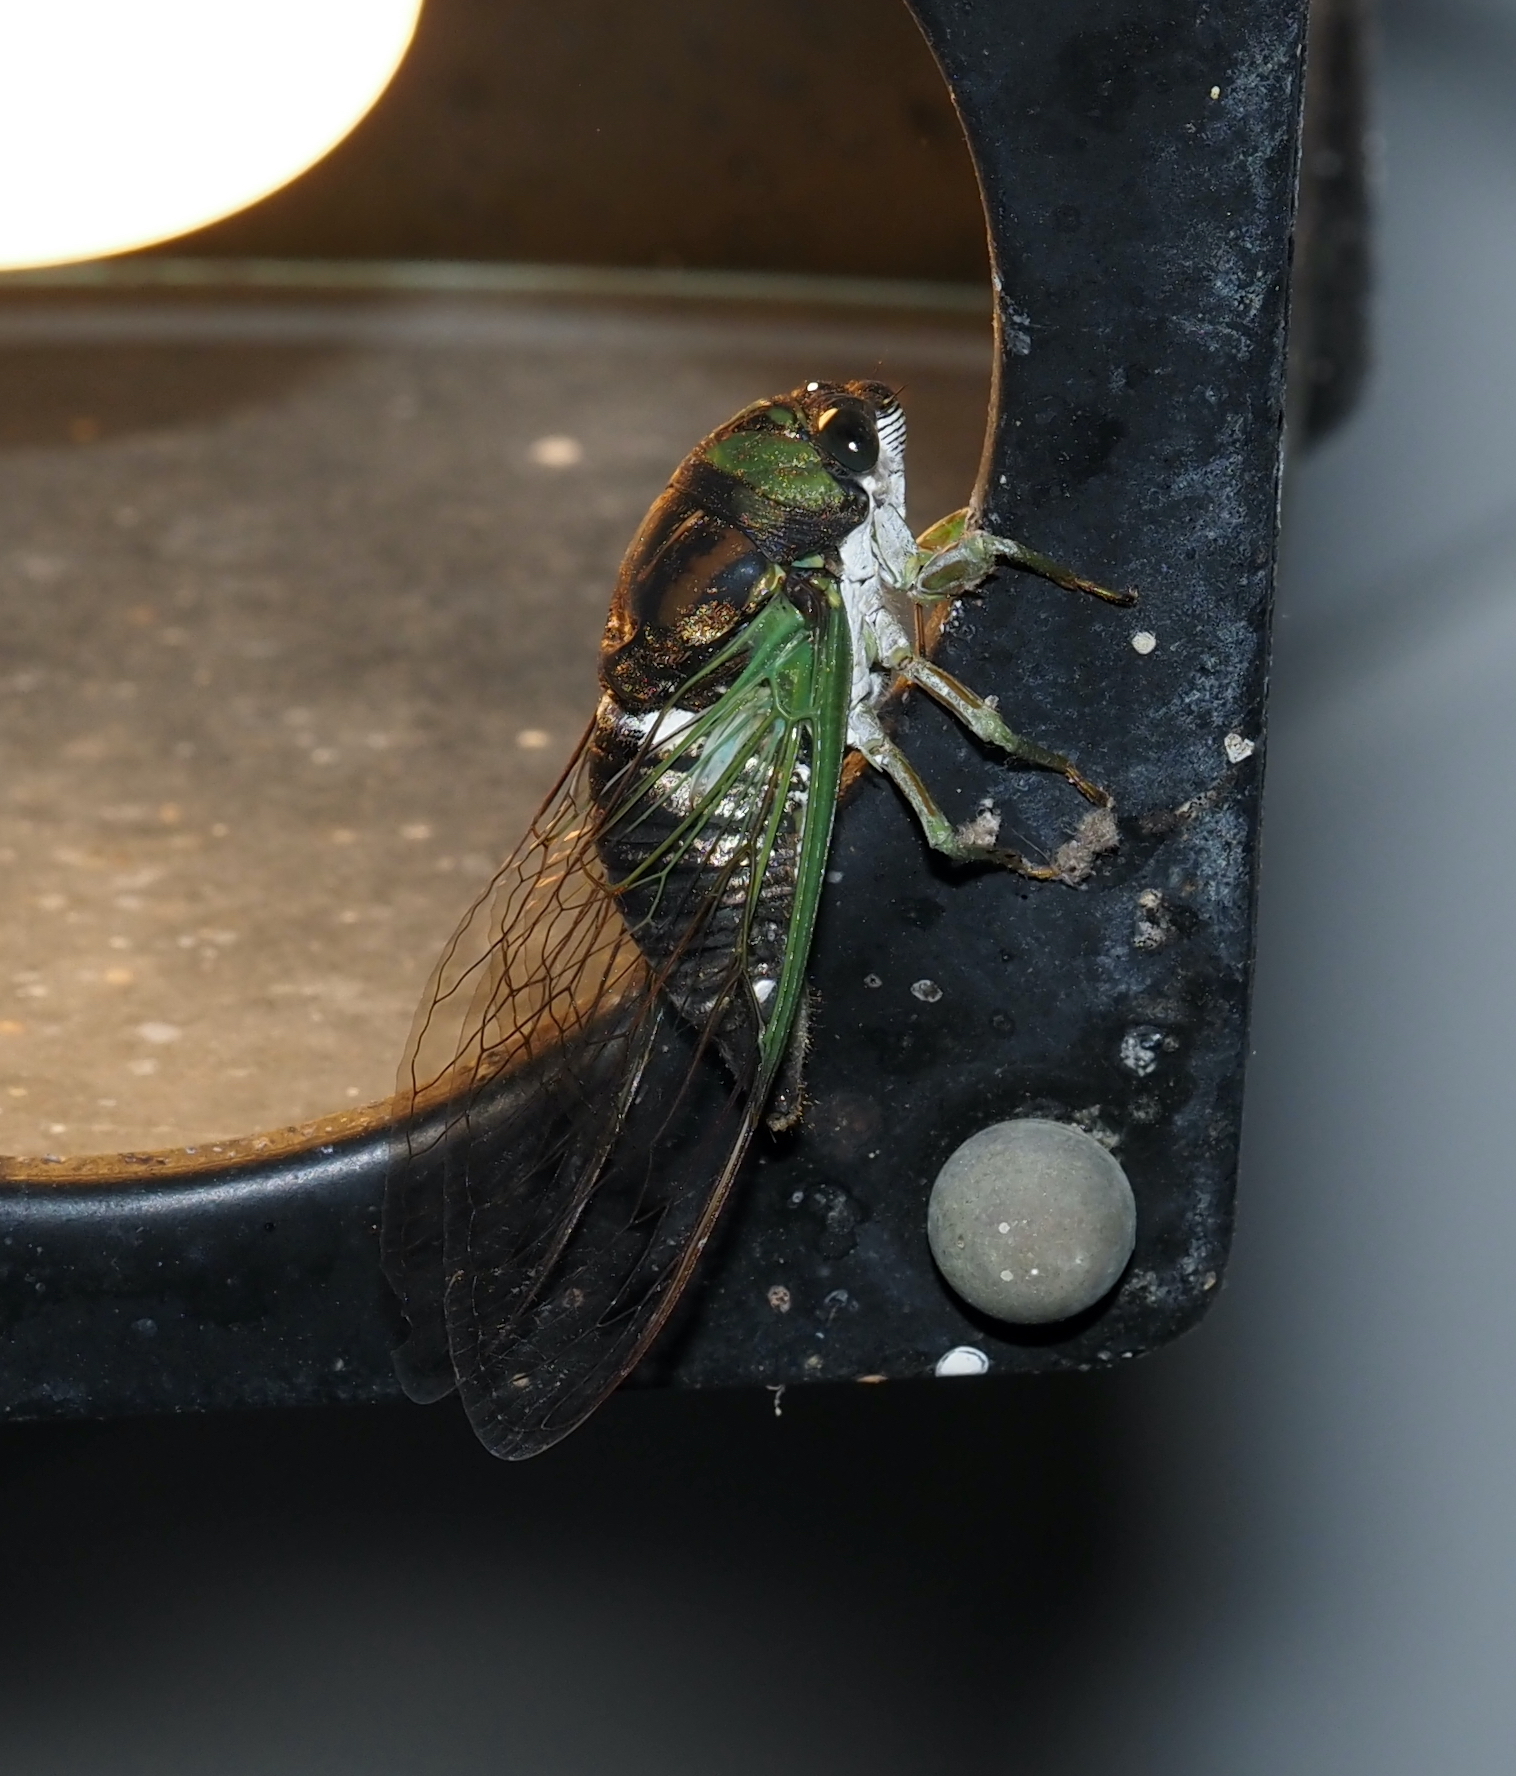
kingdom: Animalia
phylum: Arthropoda
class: Insecta
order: Hemiptera
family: Cicadidae
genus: Neotibicen
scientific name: Neotibicen tibicen
